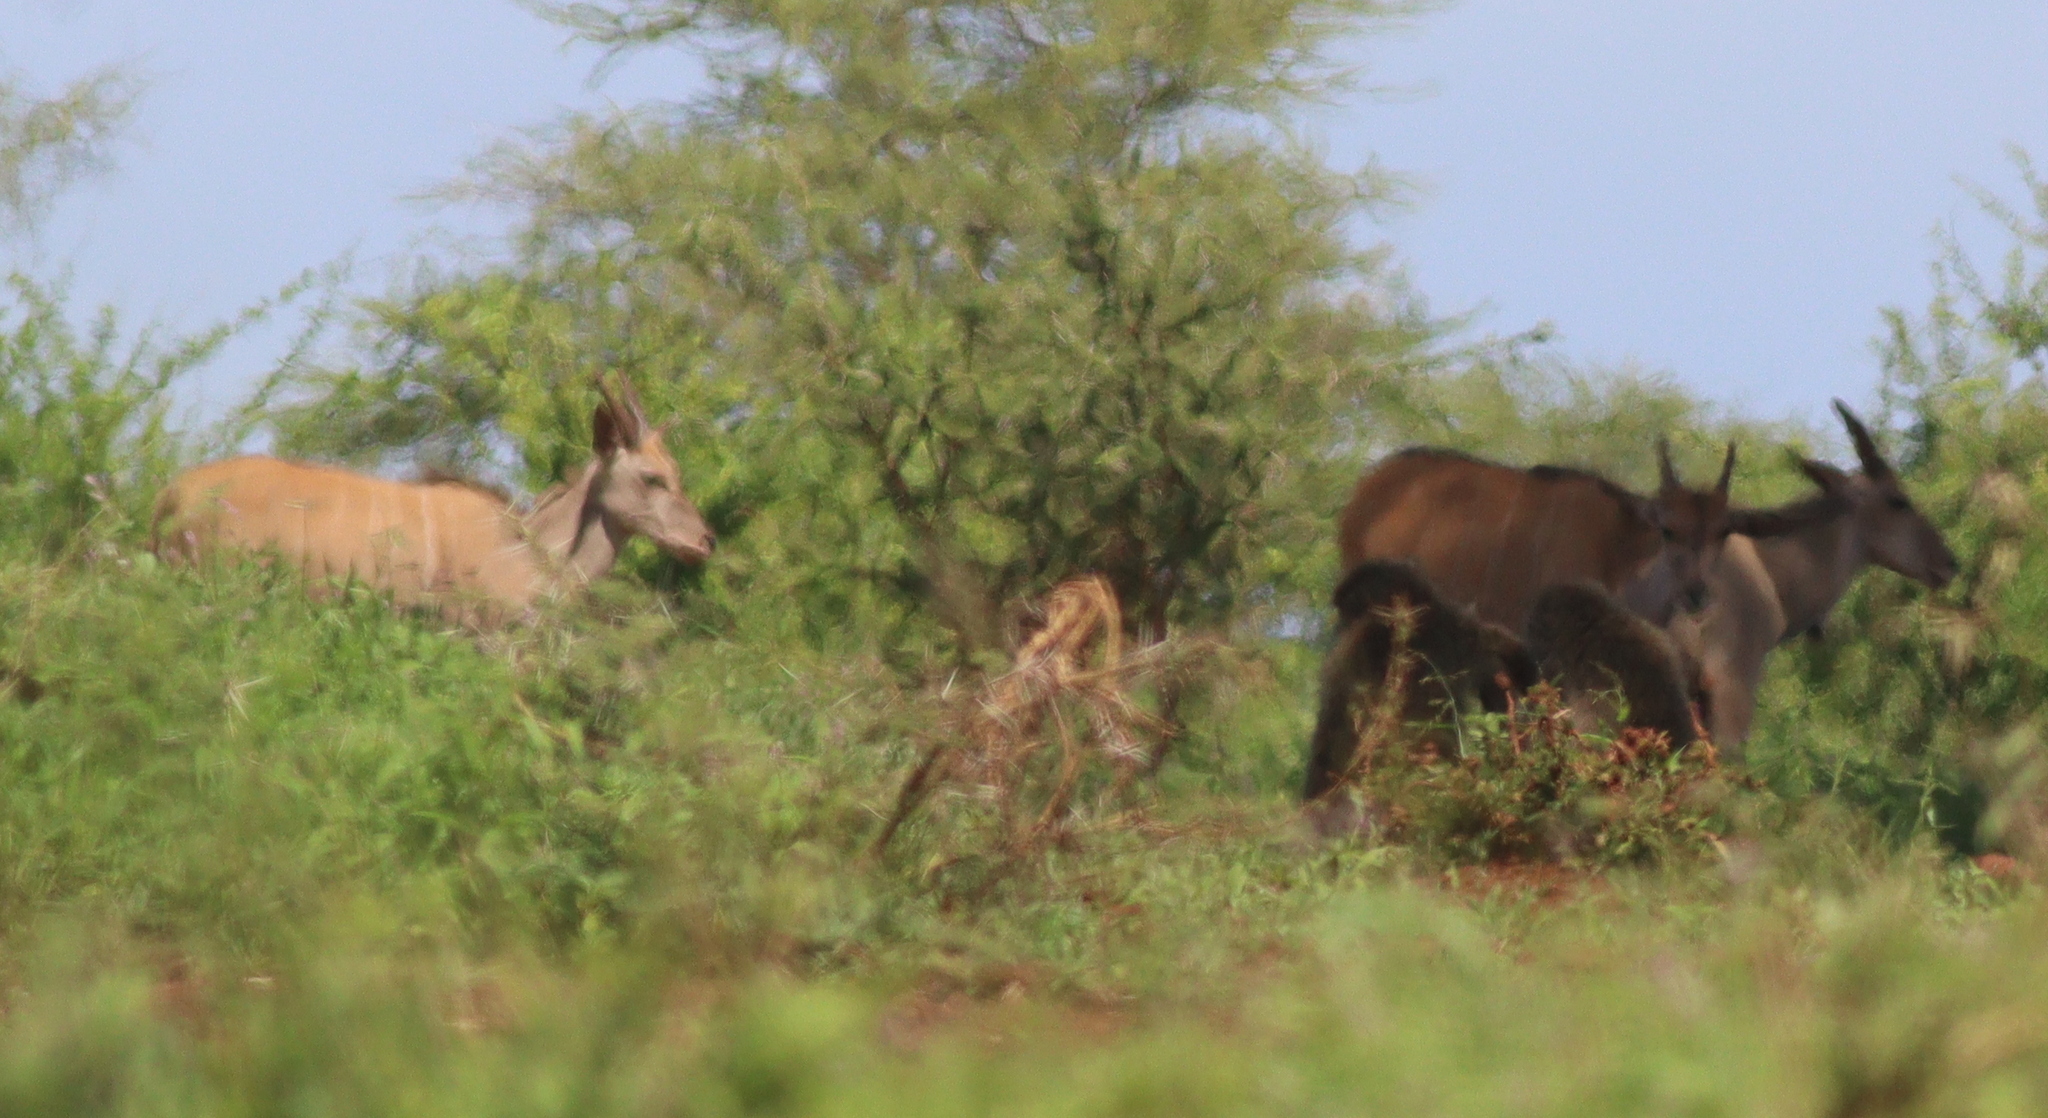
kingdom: Animalia
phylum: Chordata
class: Mammalia
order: Artiodactyla
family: Bovidae
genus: Taurotragus
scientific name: Taurotragus oryx
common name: Common eland
